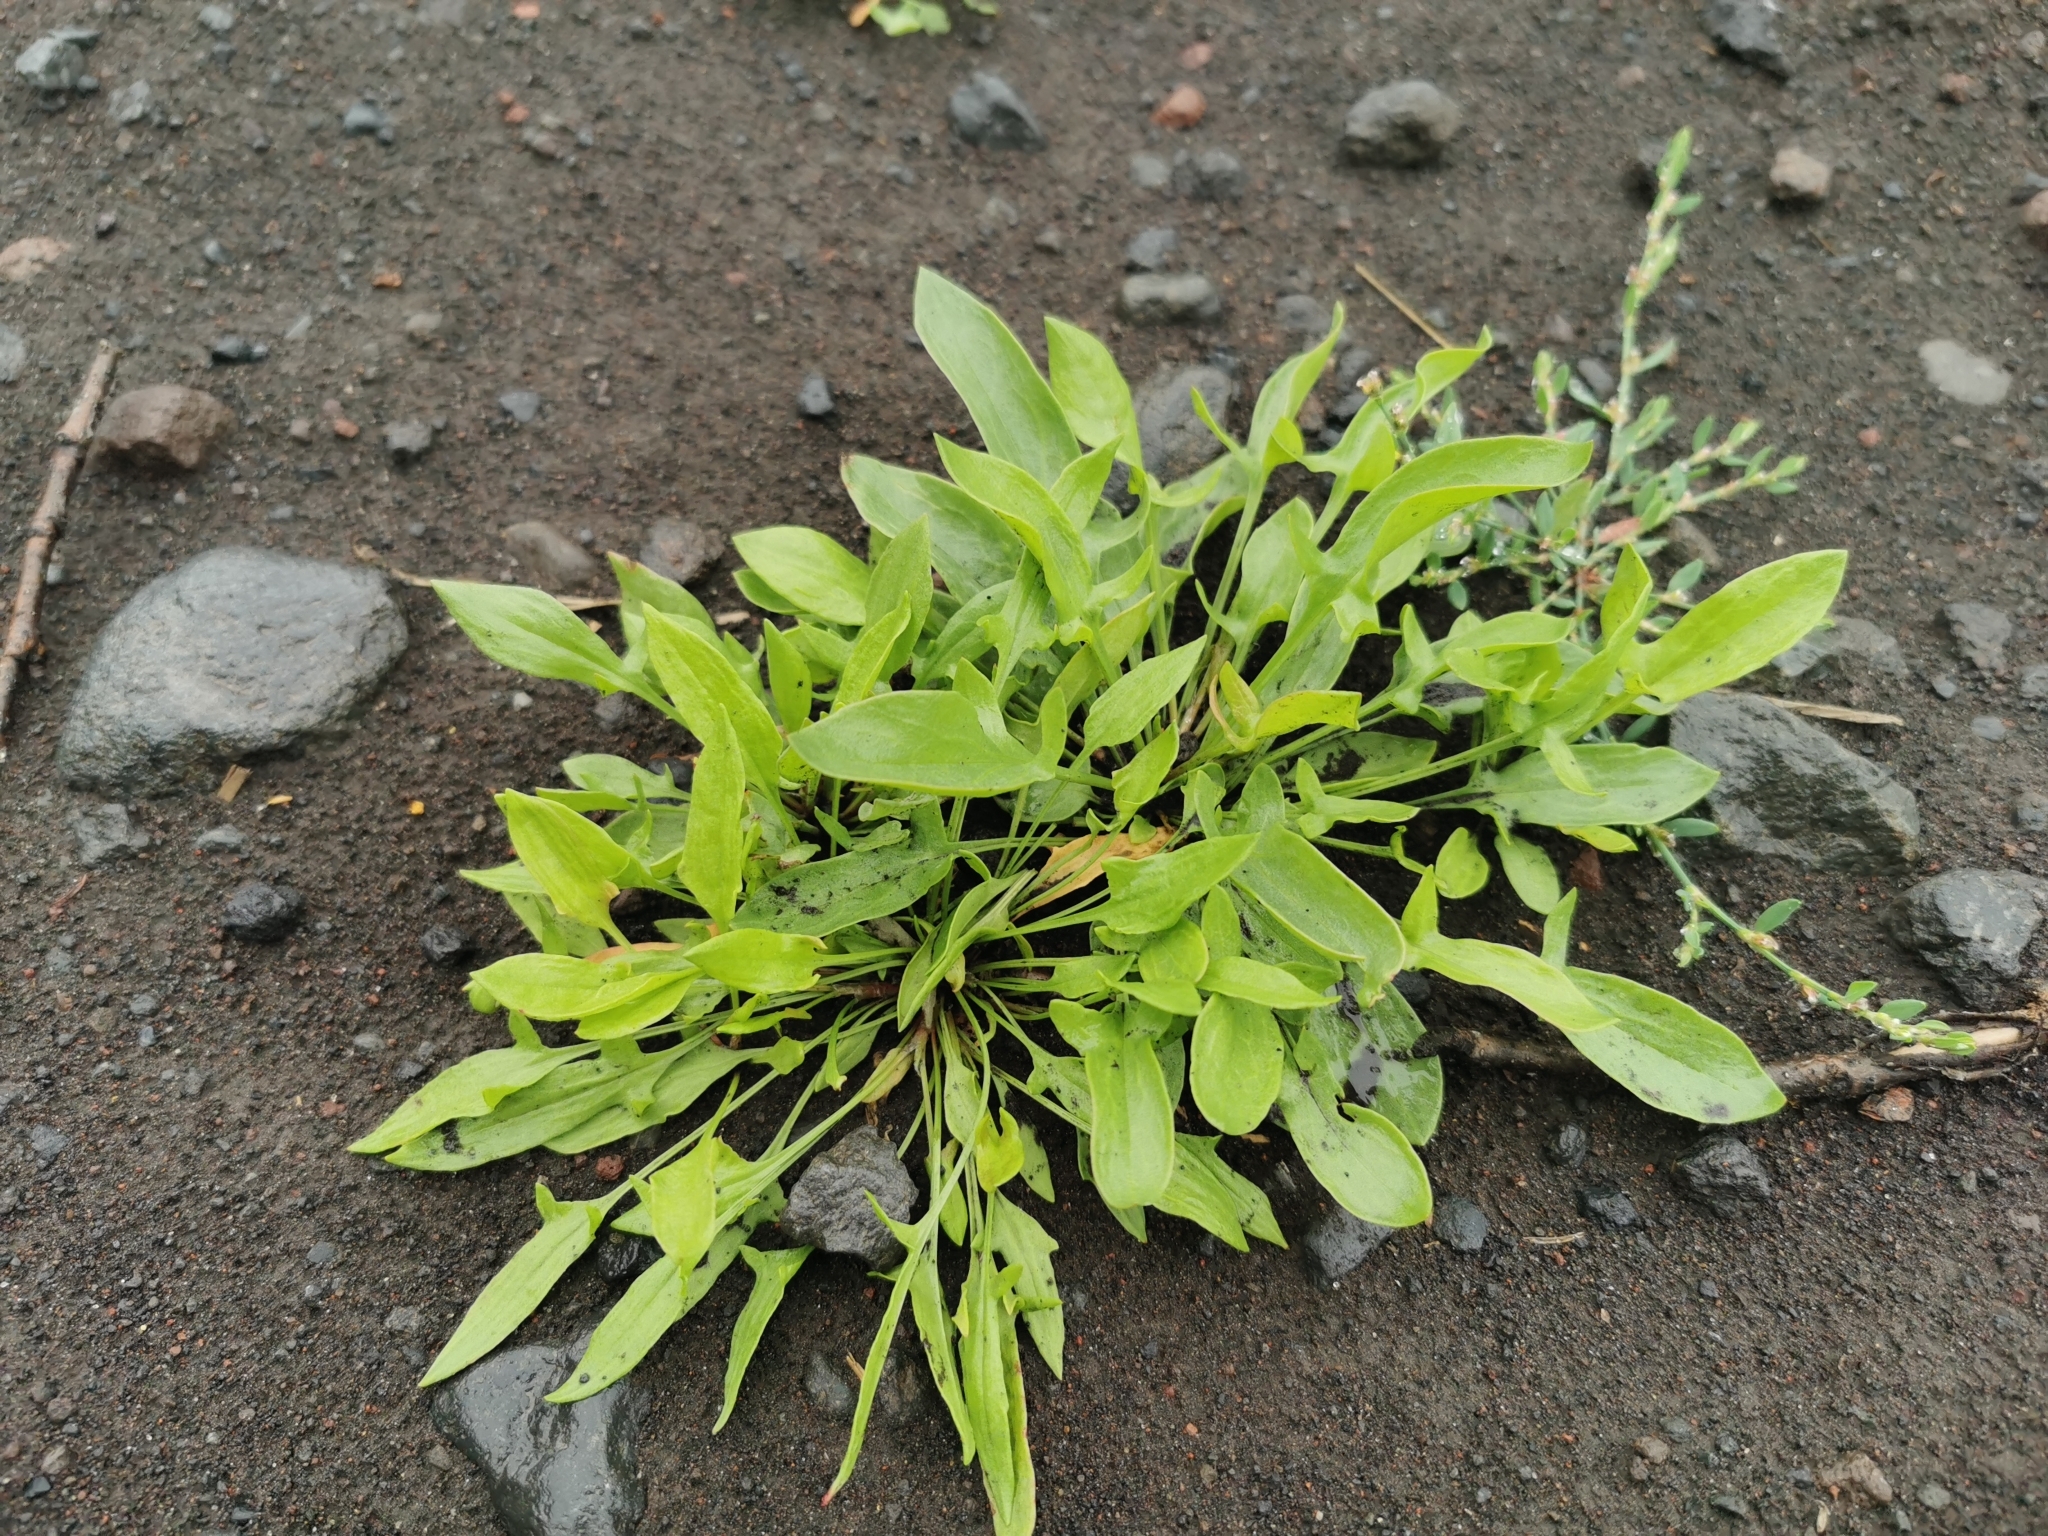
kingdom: Plantae
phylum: Tracheophyta
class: Magnoliopsida
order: Caryophyllales
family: Polygonaceae
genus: Rumex
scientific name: Rumex acetosella
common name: Common sheep sorrel
